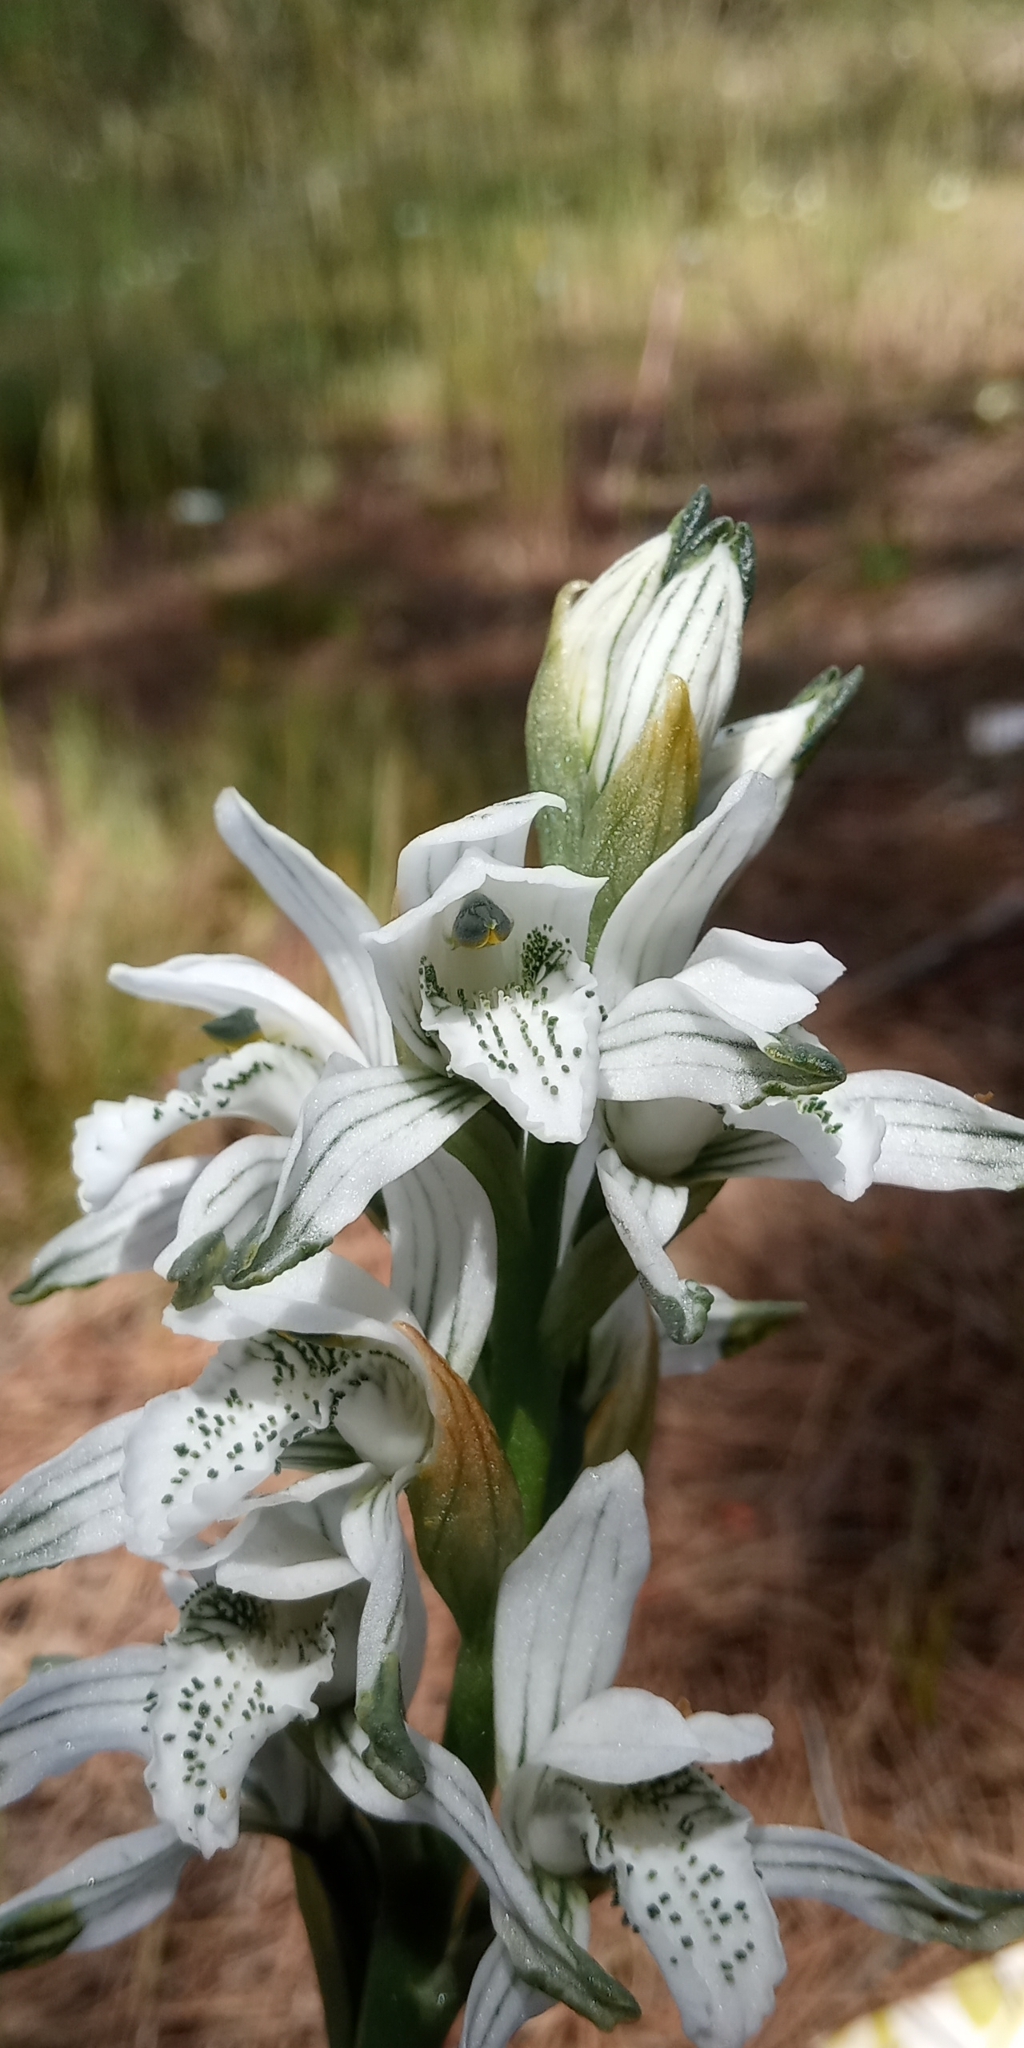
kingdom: Plantae
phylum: Tracheophyta
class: Liliopsida
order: Asparagales
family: Orchidaceae
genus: Chloraea
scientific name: Chloraea multiflora
